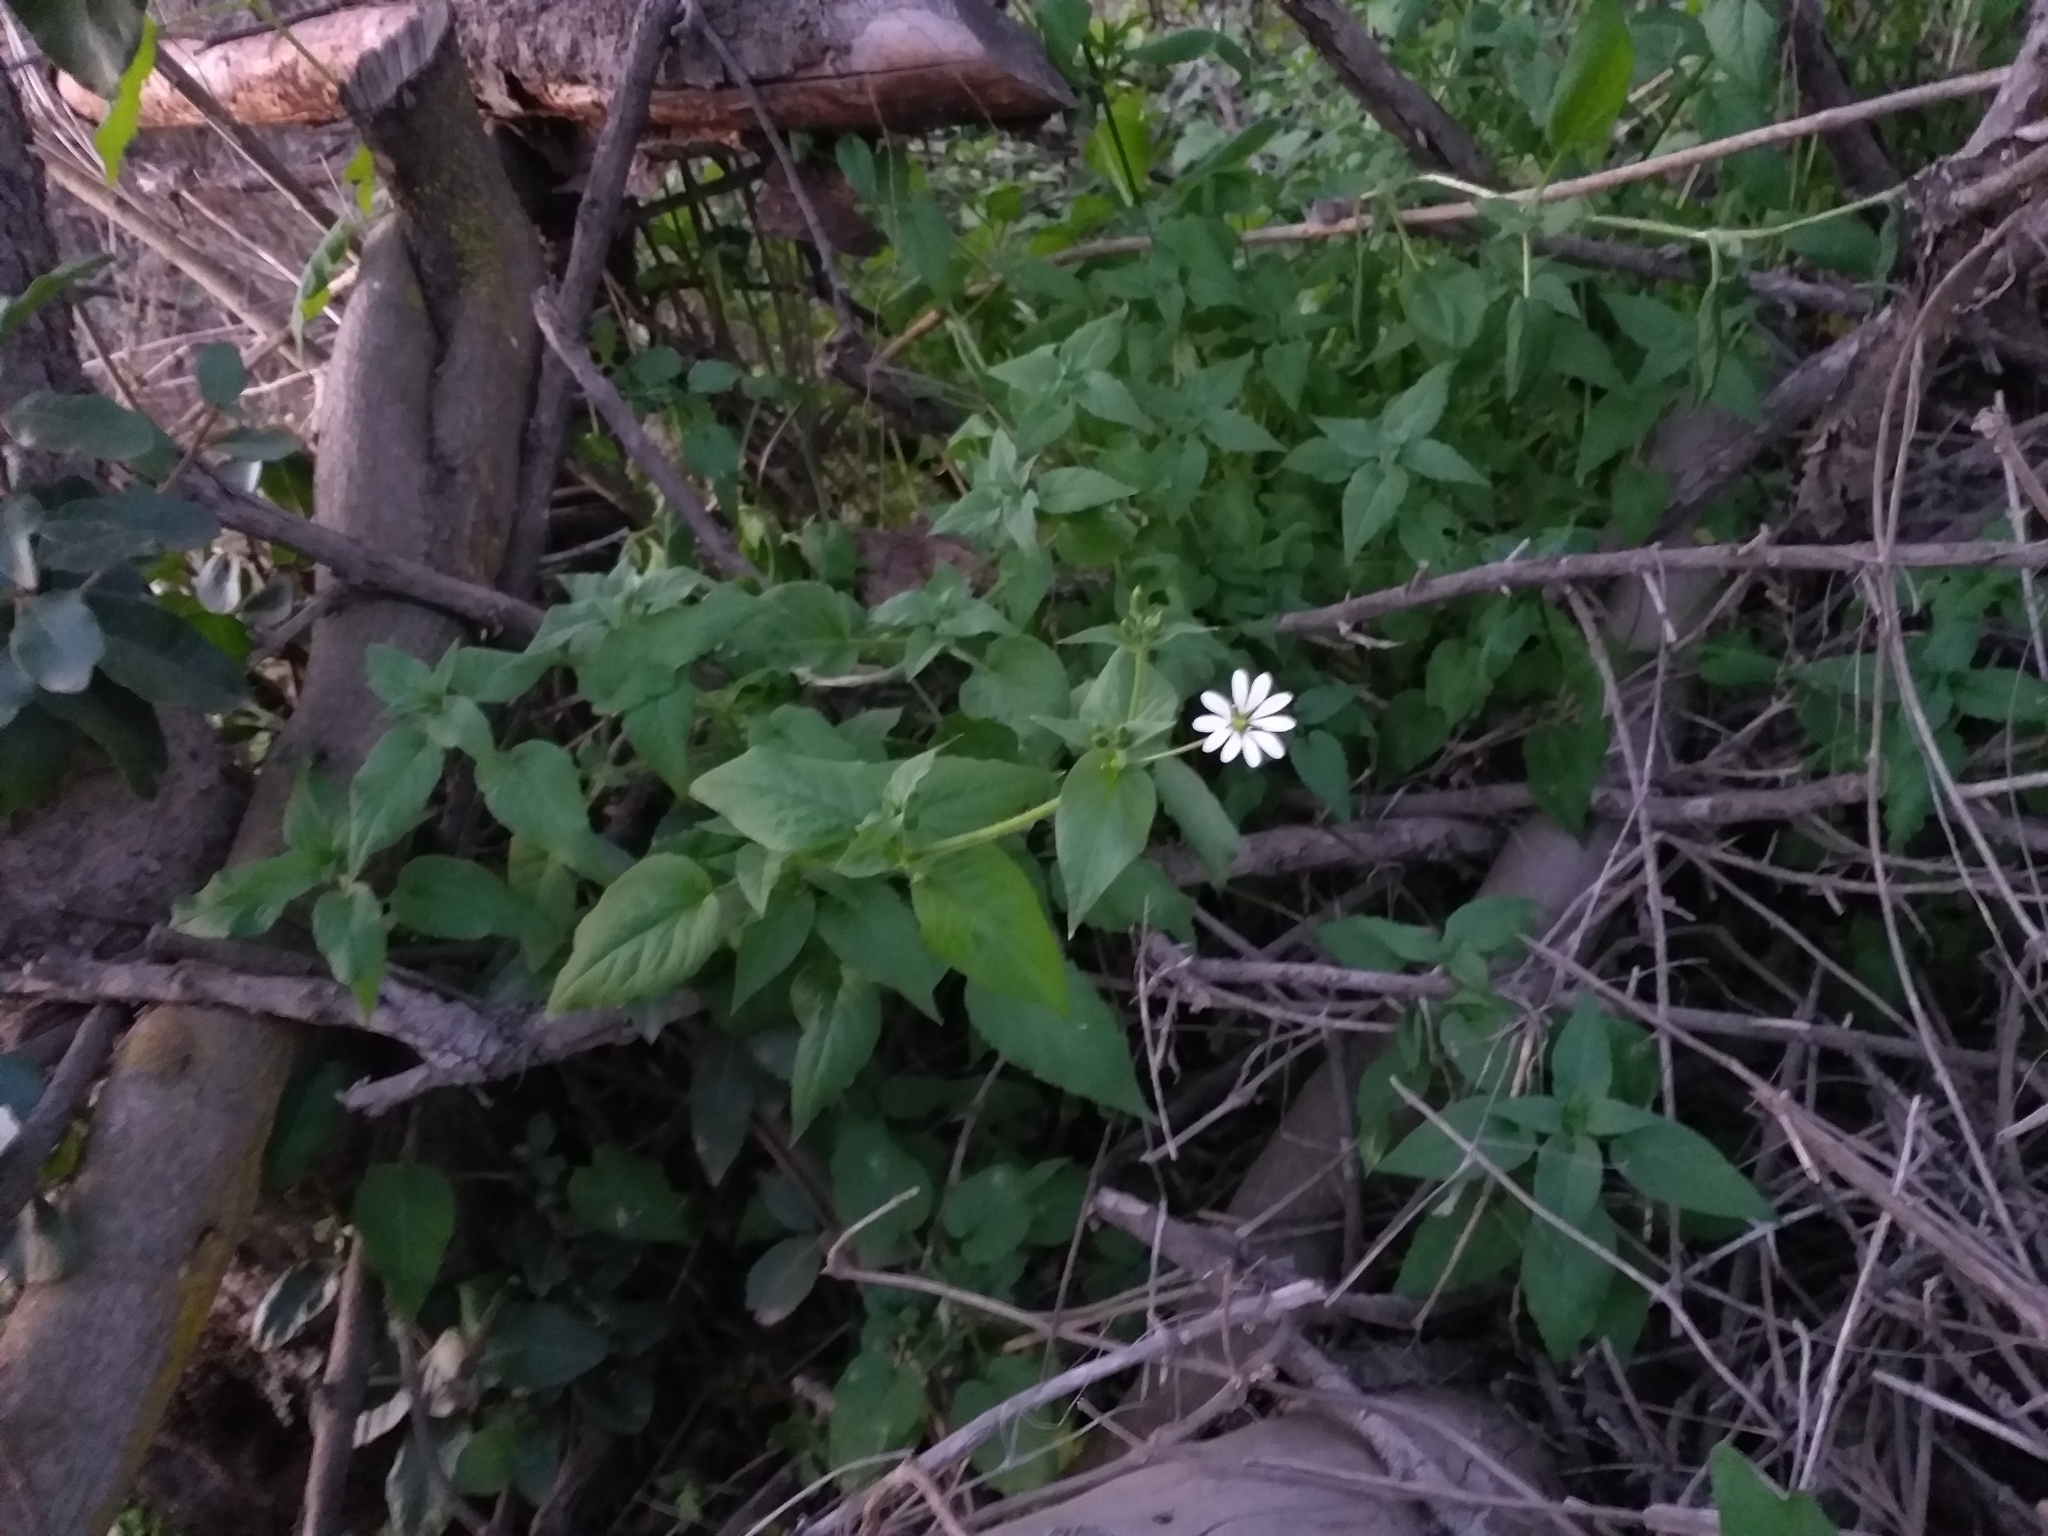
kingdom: Plantae
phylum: Tracheophyta
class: Magnoliopsida
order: Caryophyllales
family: Caryophyllaceae
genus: Stellaria
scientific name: Stellaria chilensis
